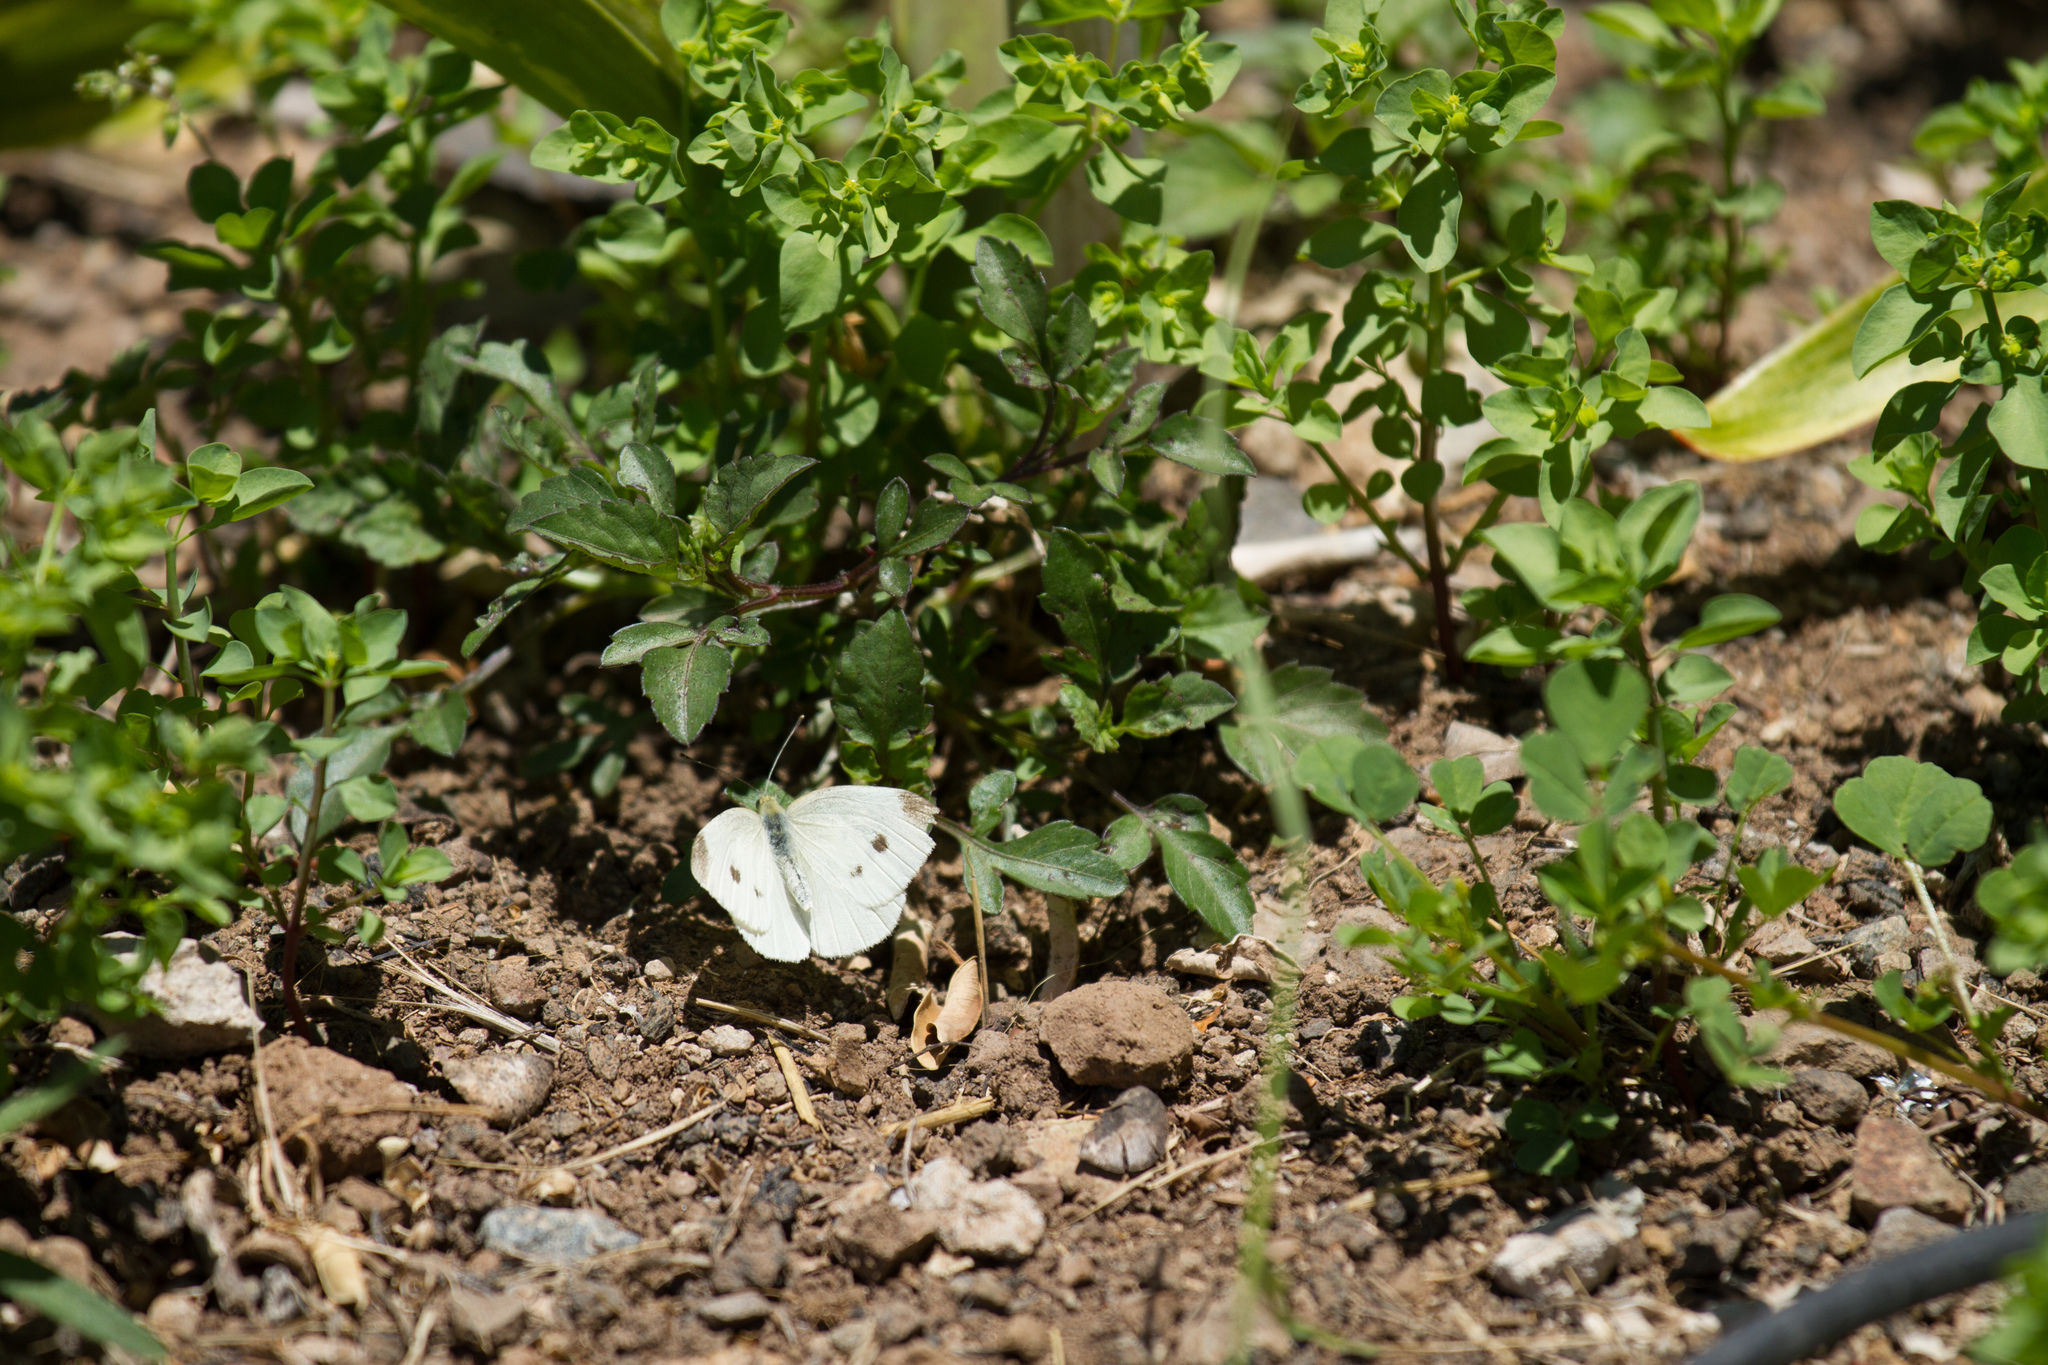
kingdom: Animalia
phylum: Arthropoda
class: Insecta
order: Lepidoptera
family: Pieridae
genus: Pieris
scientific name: Pieris rapae
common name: Small white
